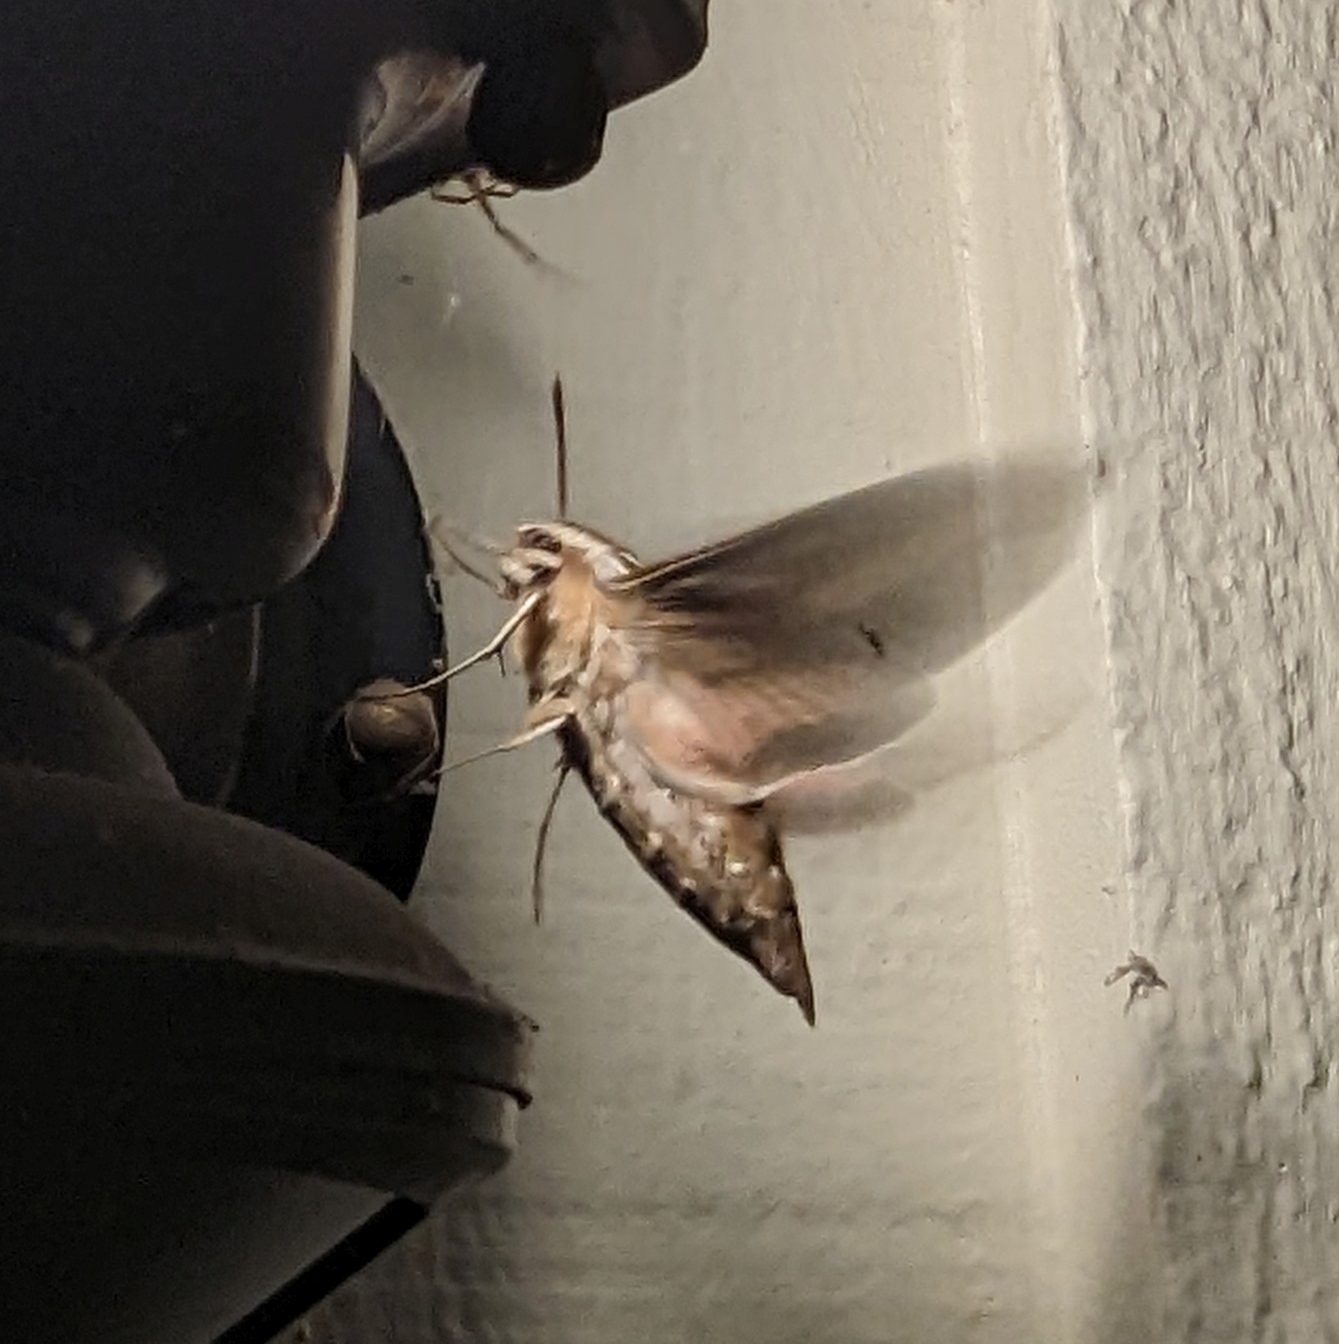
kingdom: Animalia
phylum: Arthropoda
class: Insecta
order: Lepidoptera
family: Sphingidae
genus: Hyles
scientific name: Hyles lineata
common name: White-lined sphinx
